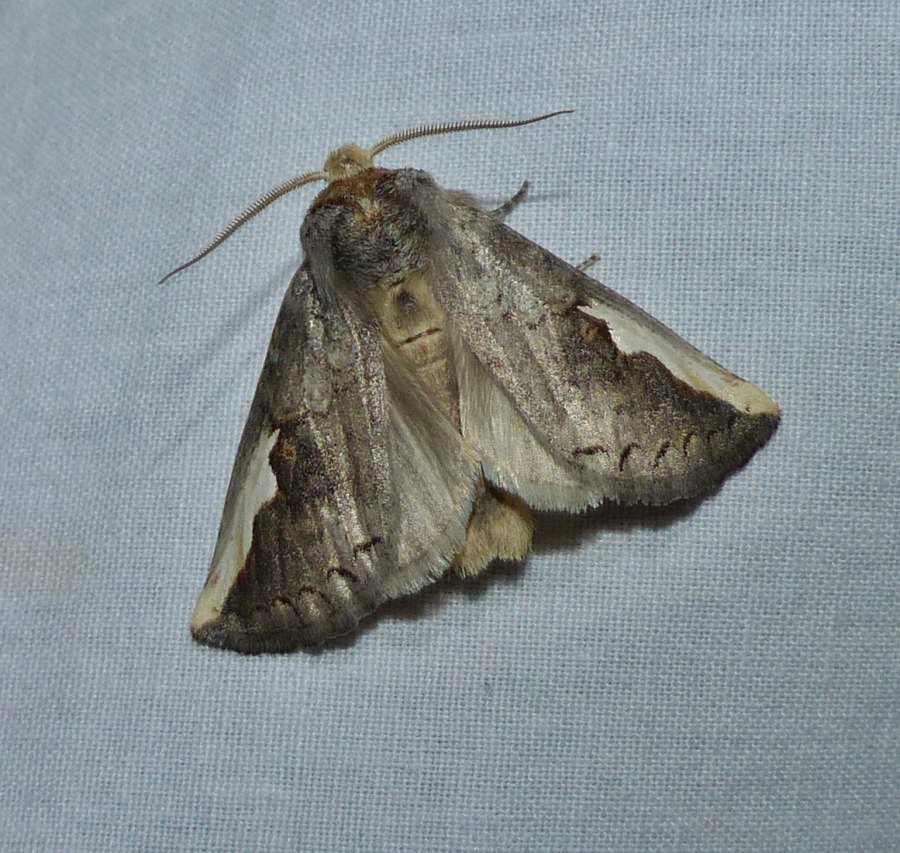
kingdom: Animalia
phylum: Arthropoda
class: Insecta
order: Lepidoptera
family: Notodontidae
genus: Symmerista
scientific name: Symmerista
